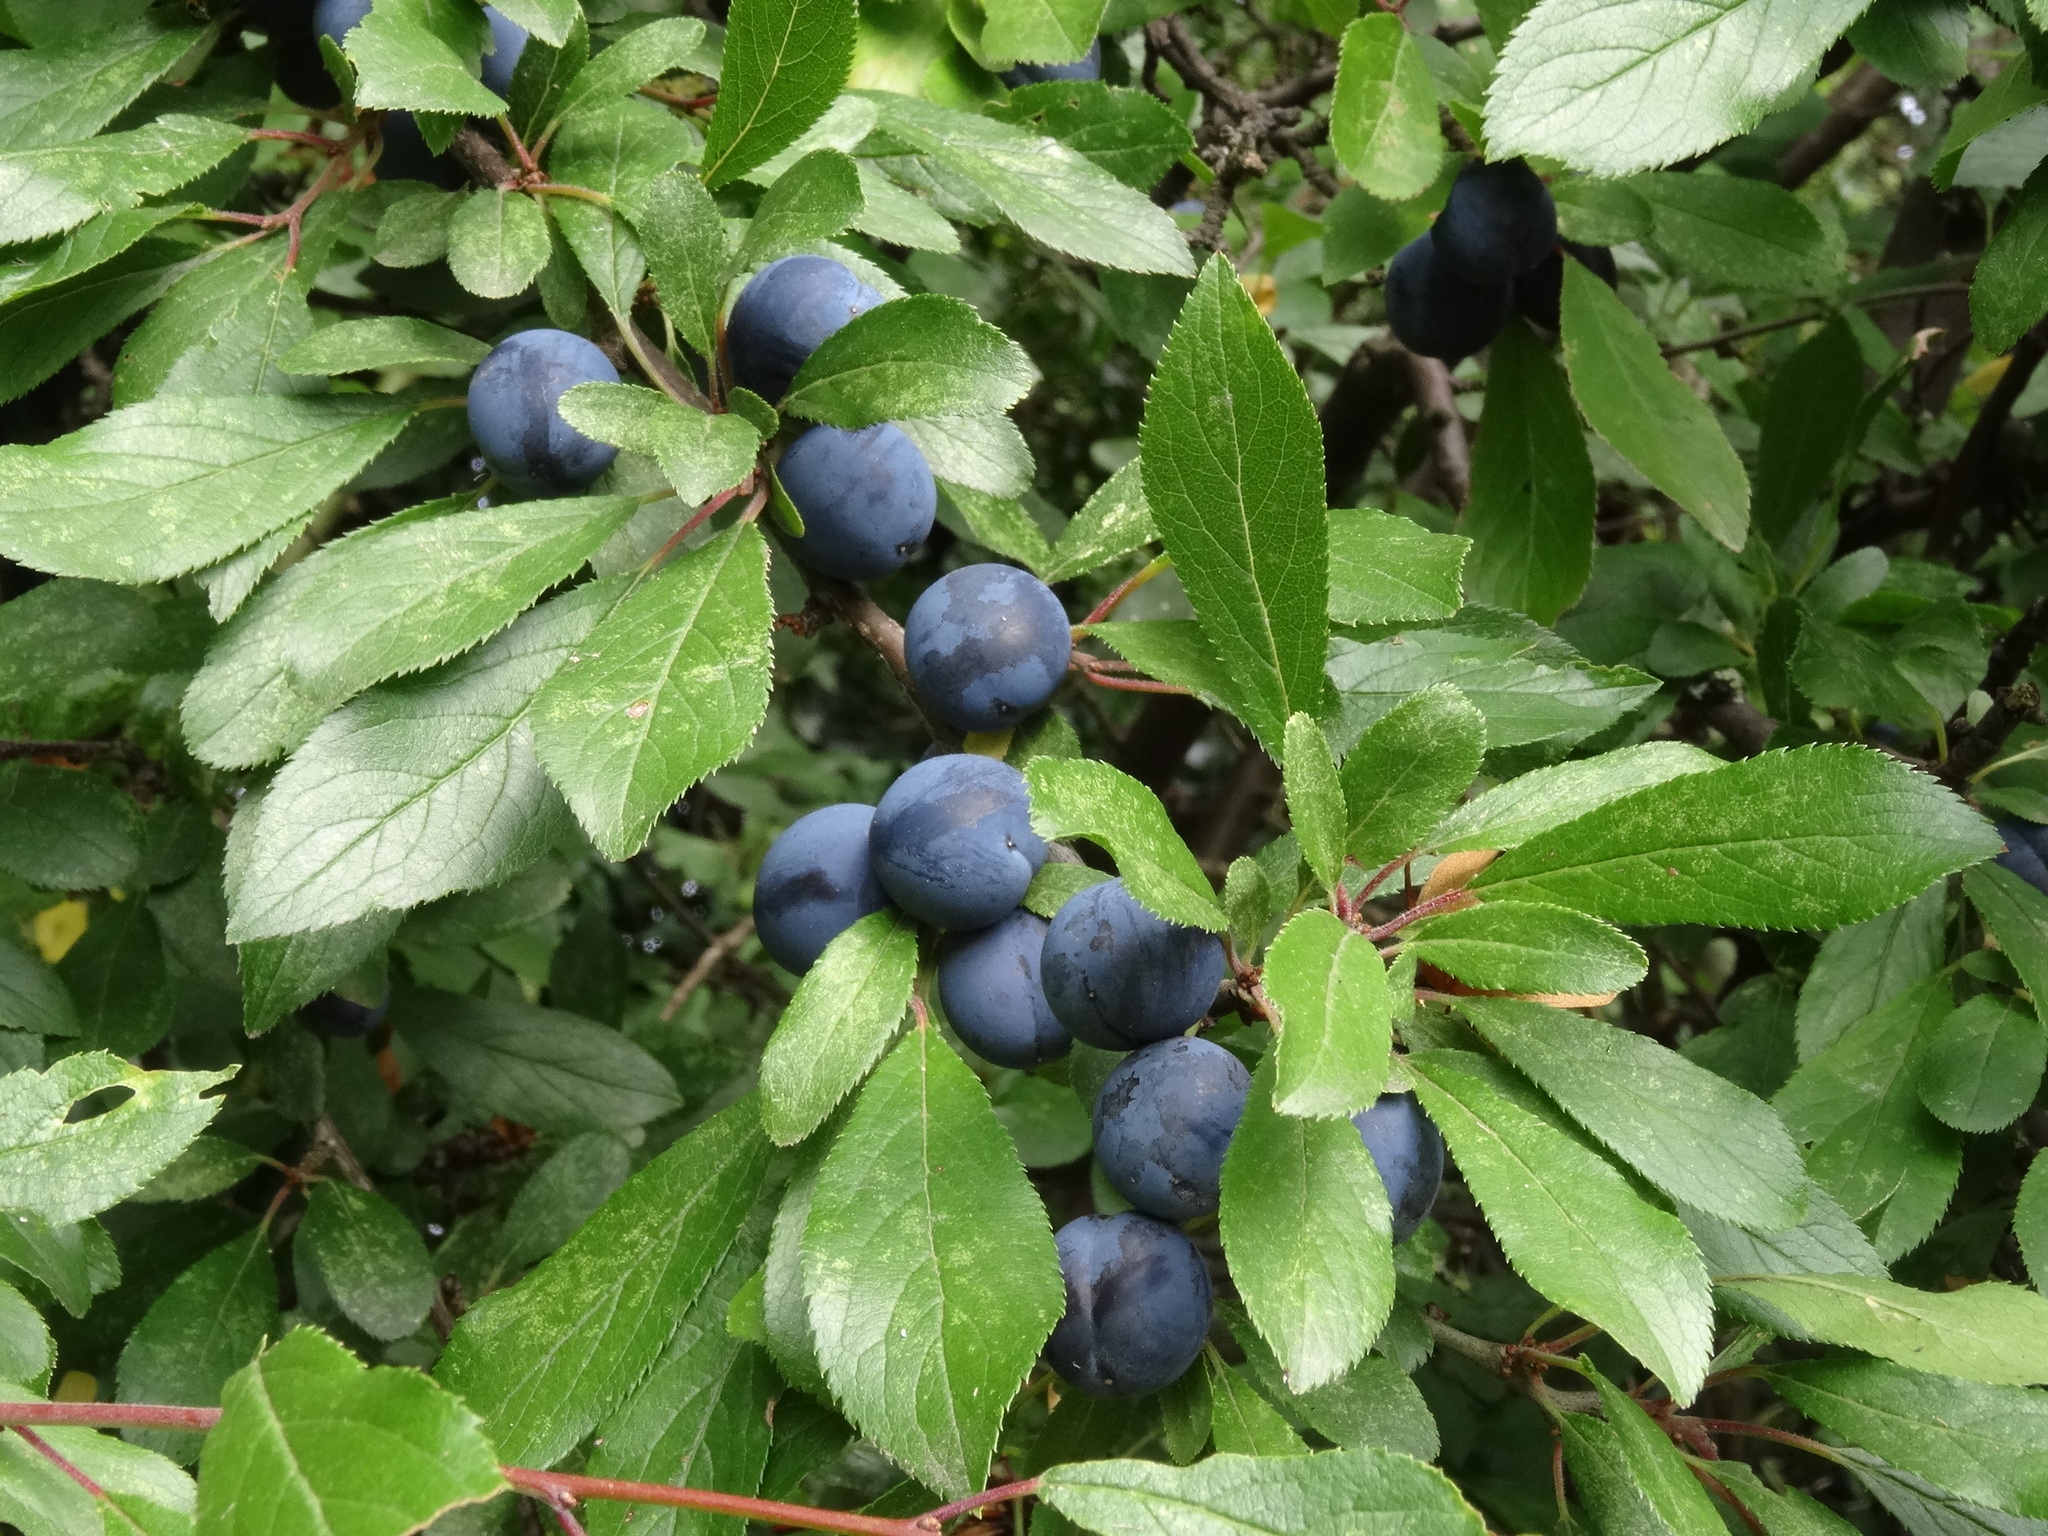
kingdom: Plantae
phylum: Tracheophyta
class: Magnoliopsida
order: Rosales
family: Rosaceae
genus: Prunus
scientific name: Prunus spinosa
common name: Blackthorn
